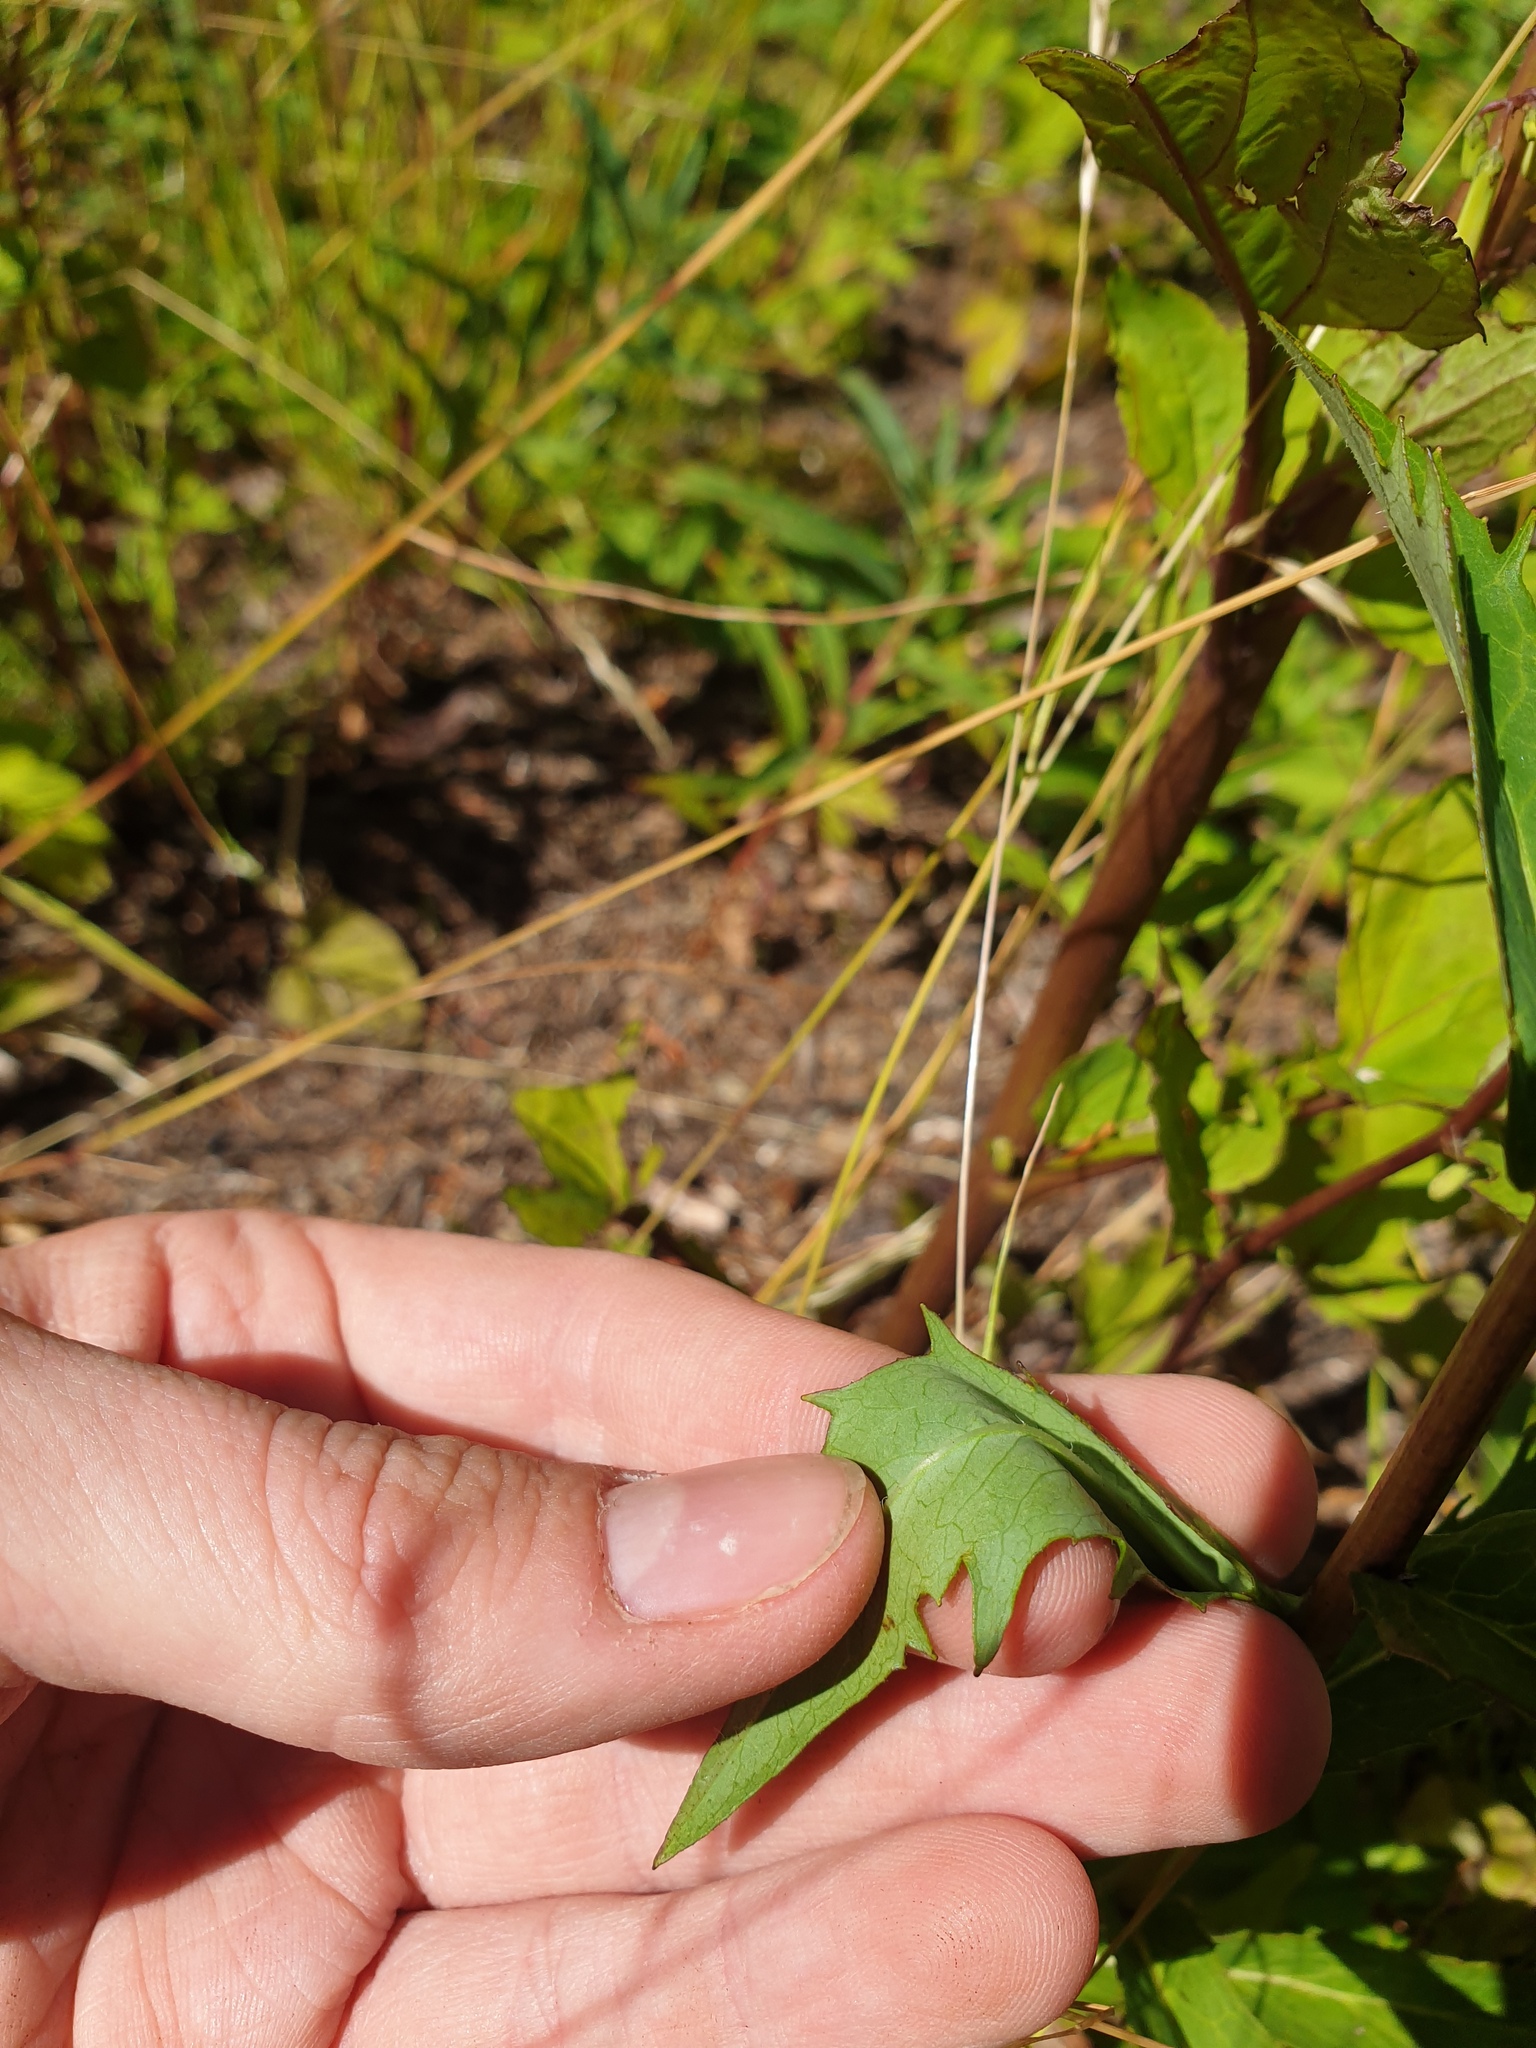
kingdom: Plantae
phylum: Tracheophyta
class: Magnoliopsida
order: Asterales
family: Asteraceae
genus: Nabalus
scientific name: Nabalus altissima
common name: Tall rattlesnakeroot
